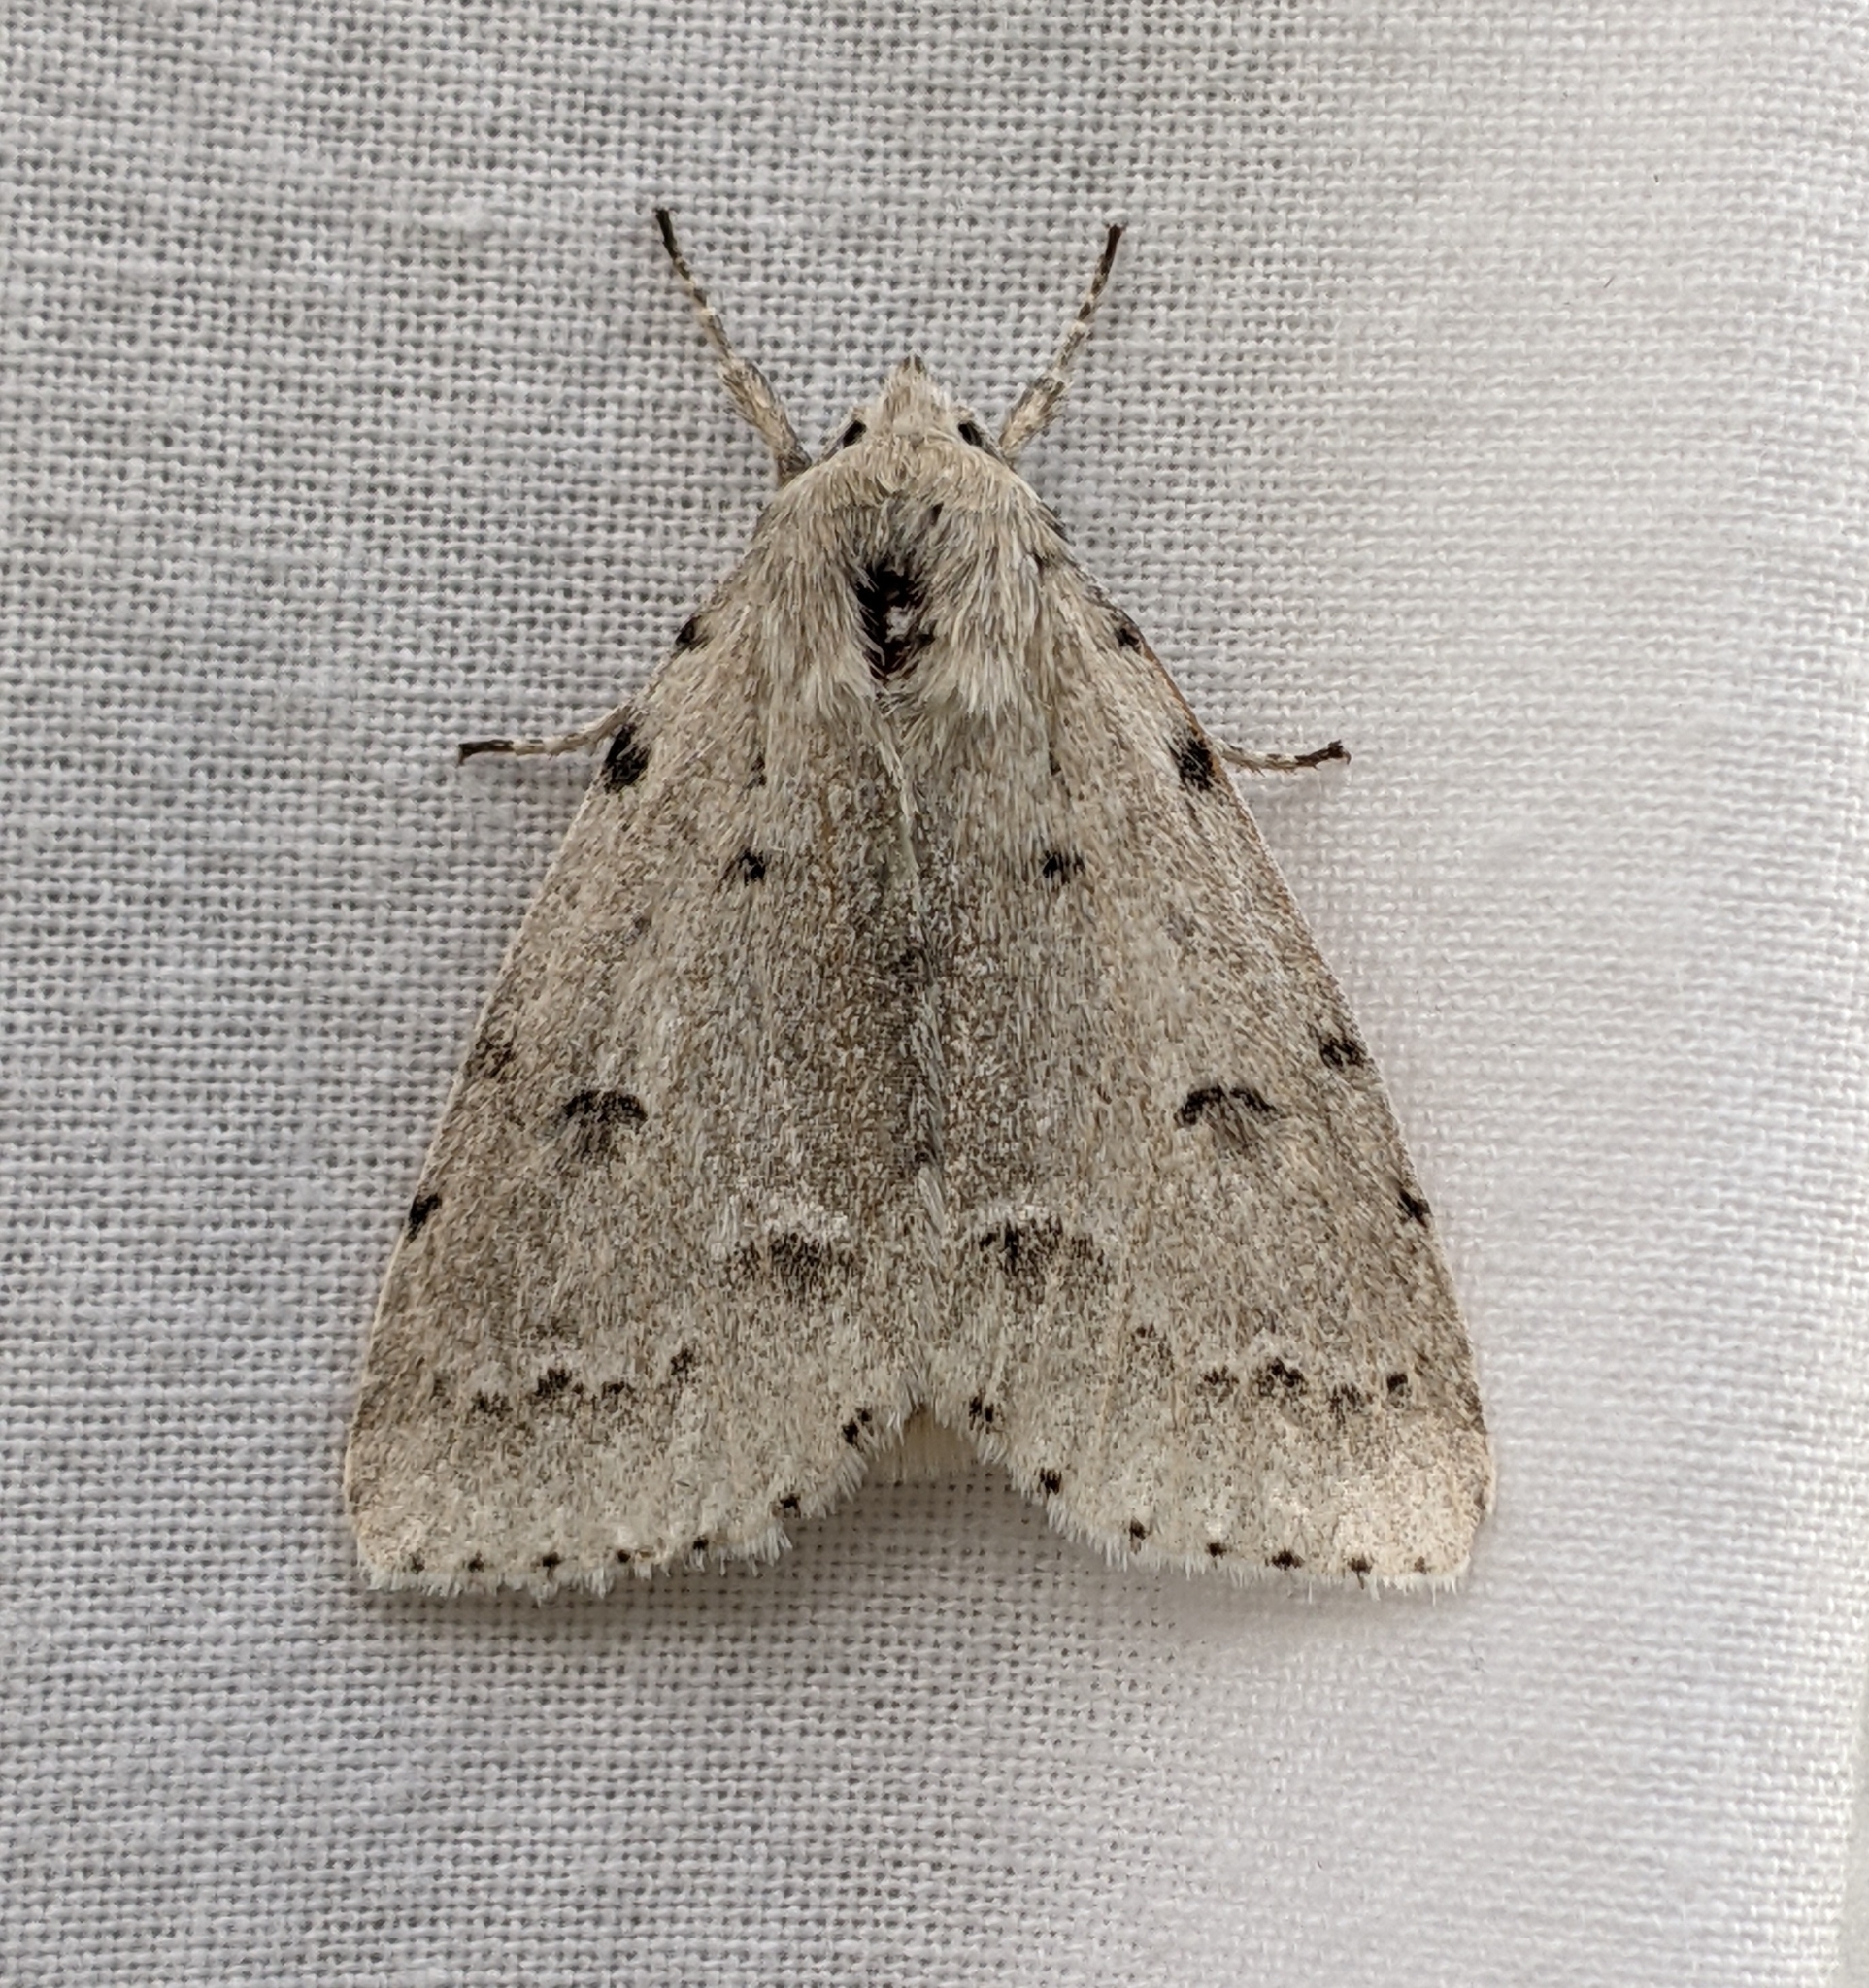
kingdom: Animalia
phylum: Arthropoda
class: Insecta
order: Lepidoptera
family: Noctuidae
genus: Acronicta
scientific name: Acronicta innotata
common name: Unmarked dagger
